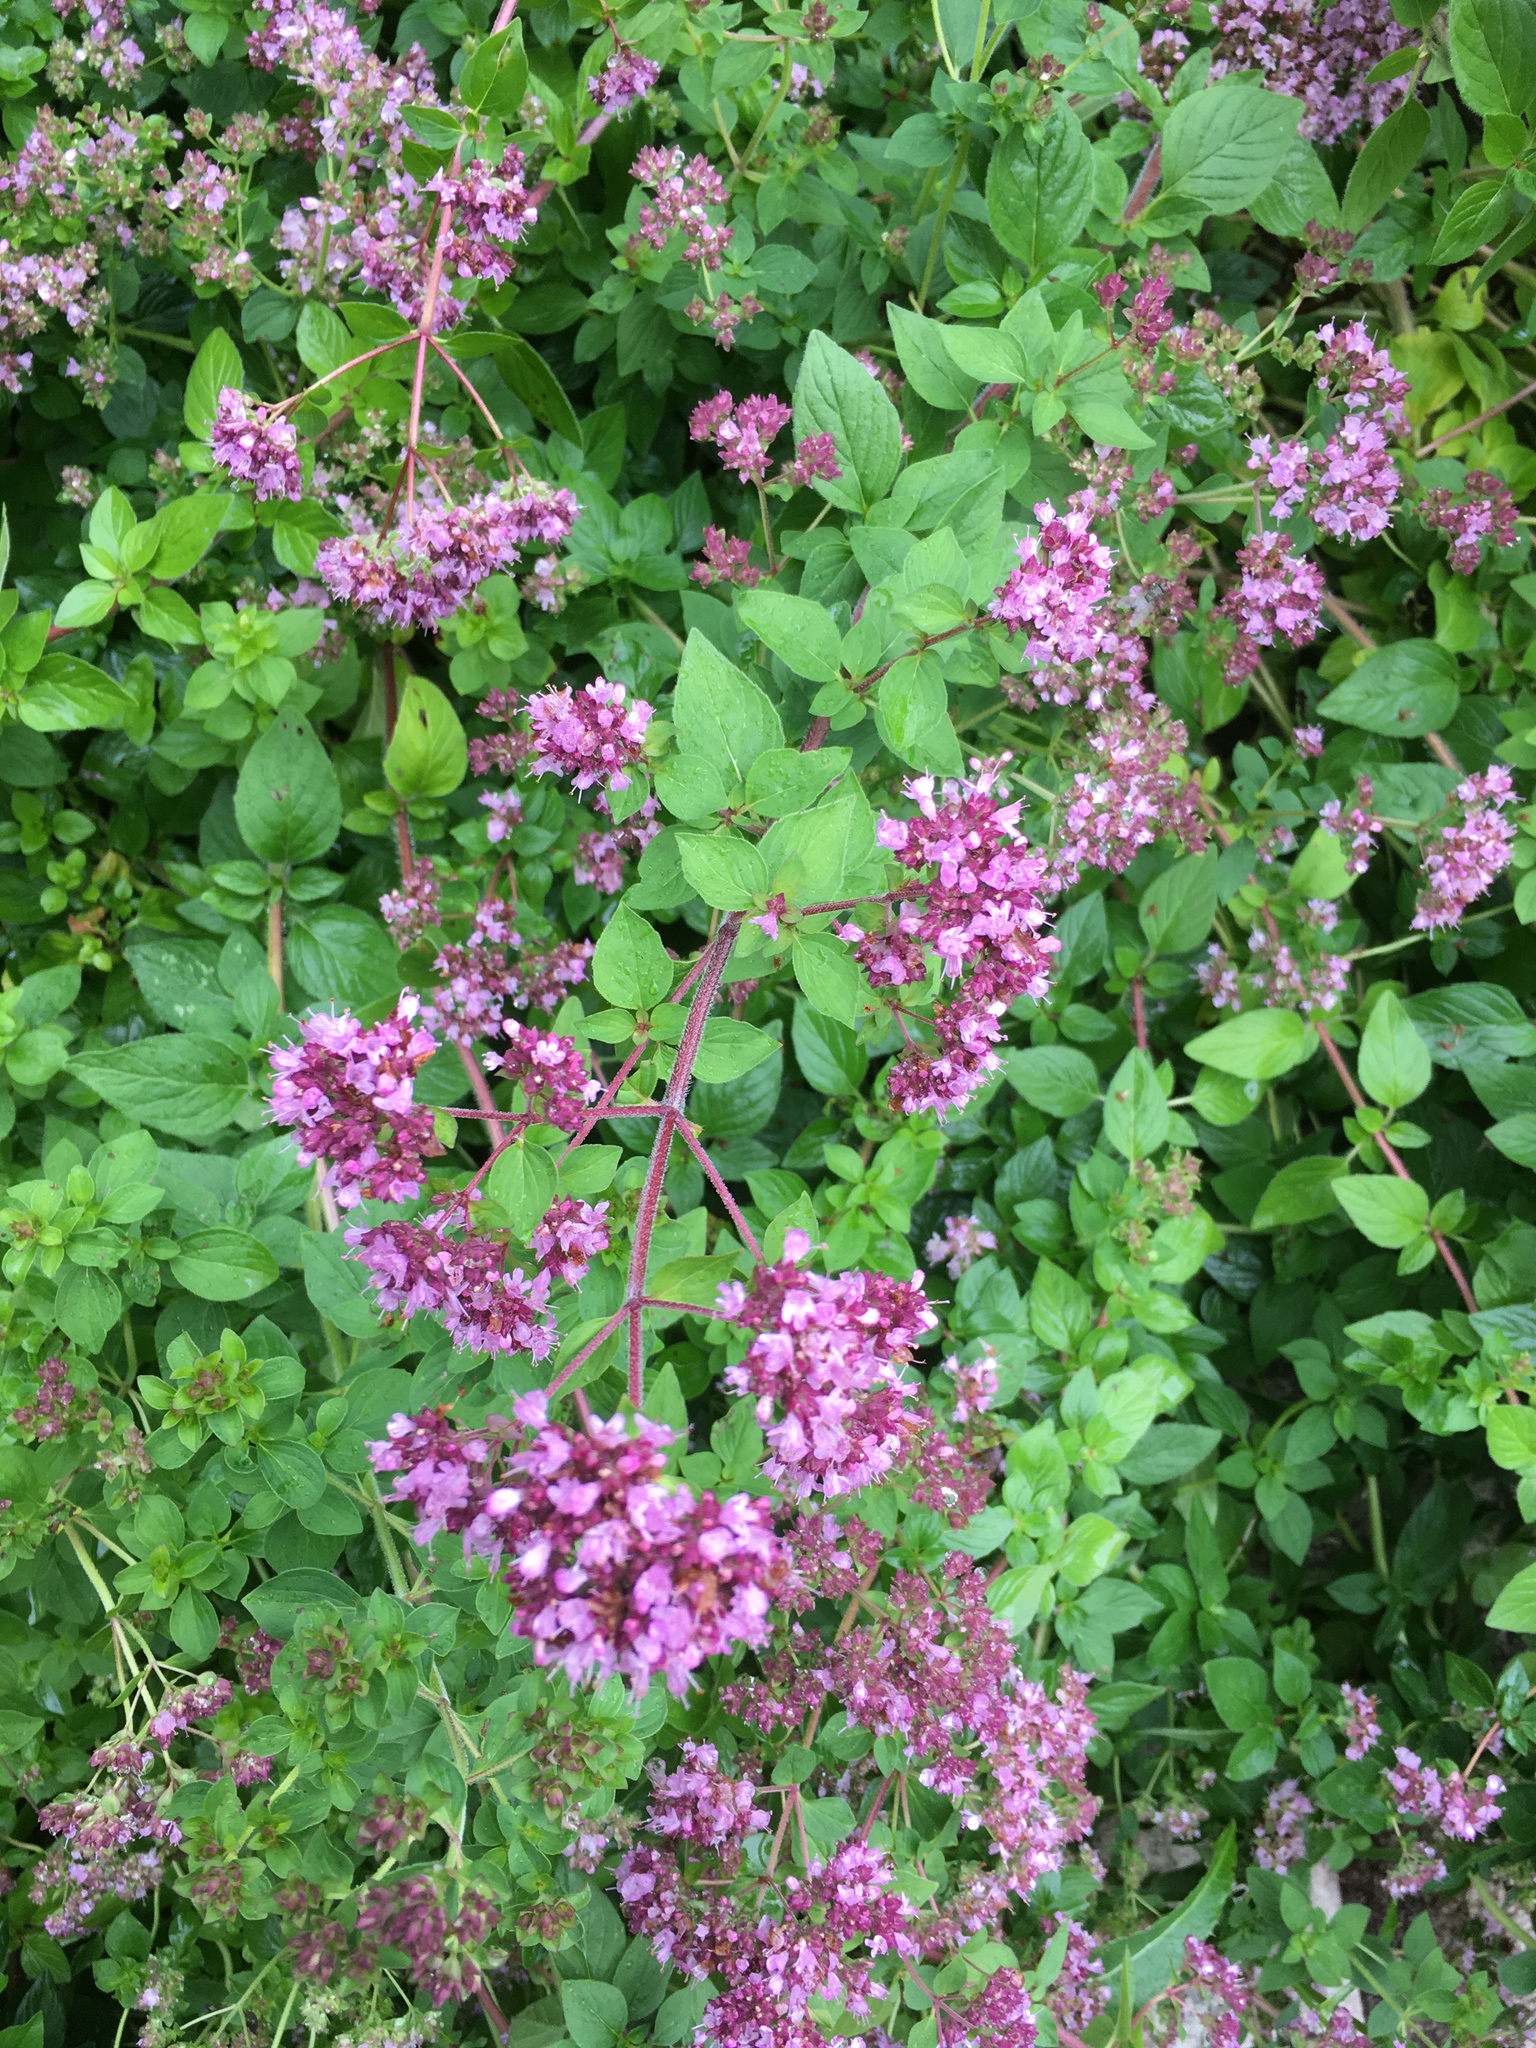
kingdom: Plantae
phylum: Tracheophyta
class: Magnoliopsida
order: Lamiales
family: Lamiaceae
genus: Origanum
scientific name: Origanum vulgare
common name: Wild marjoram
